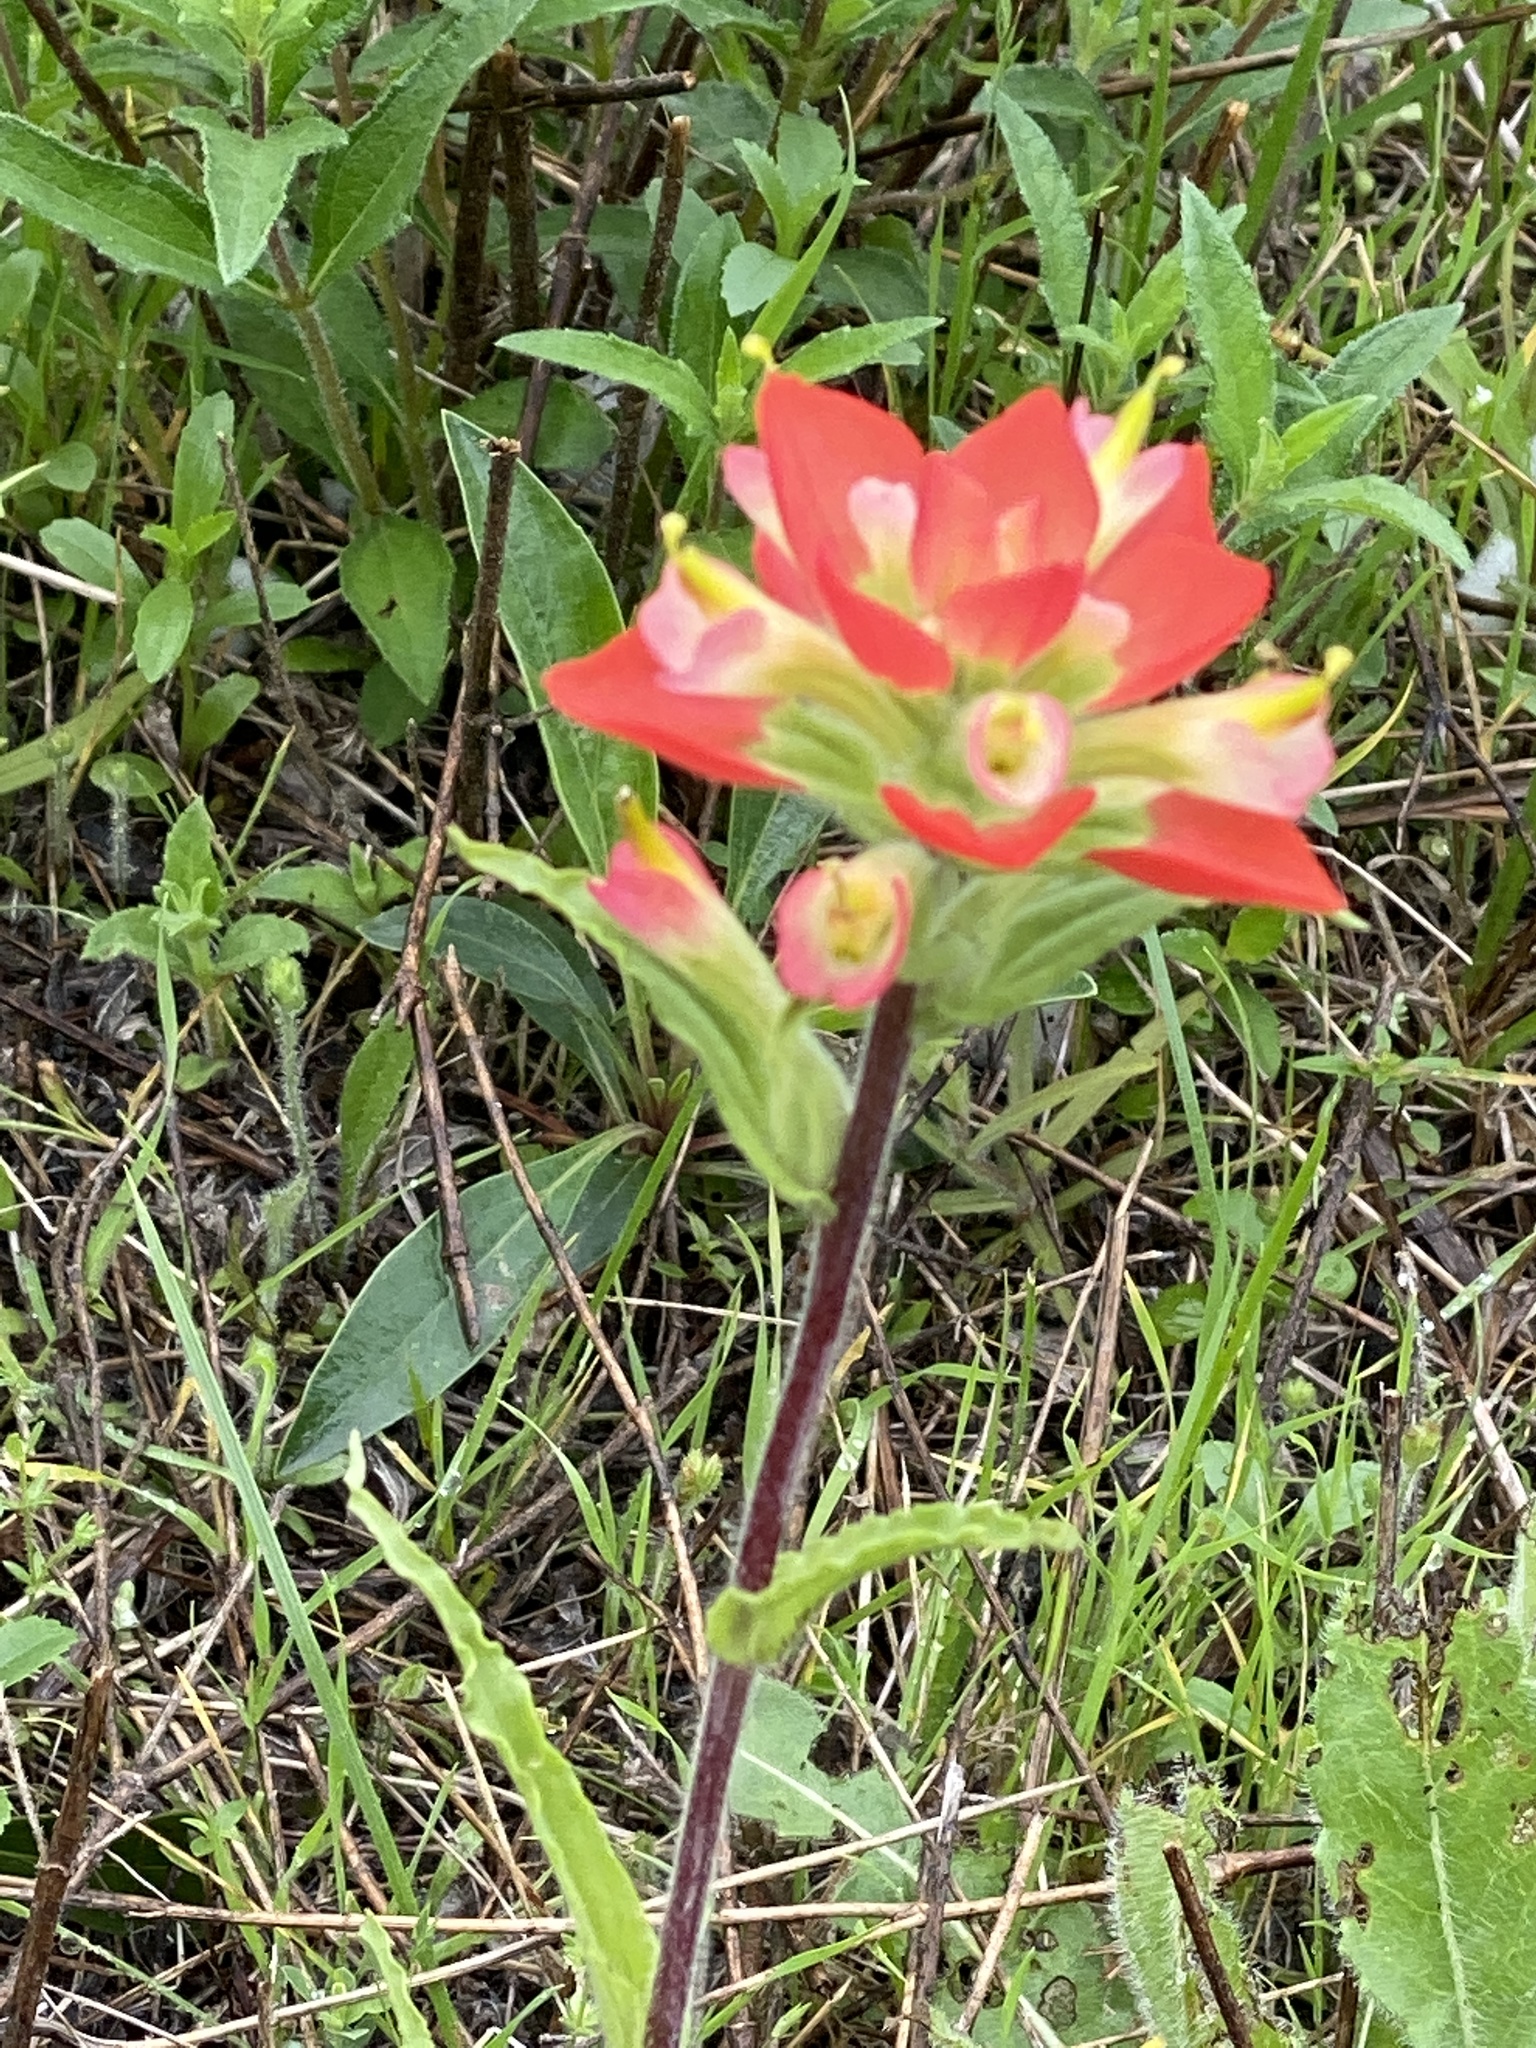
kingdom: Plantae
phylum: Tracheophyta
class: Magnoliopsida
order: Lamiales
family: Orobanchaceae
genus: Castilleja
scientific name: Castilleja indivisa
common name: Texas paintbrush
